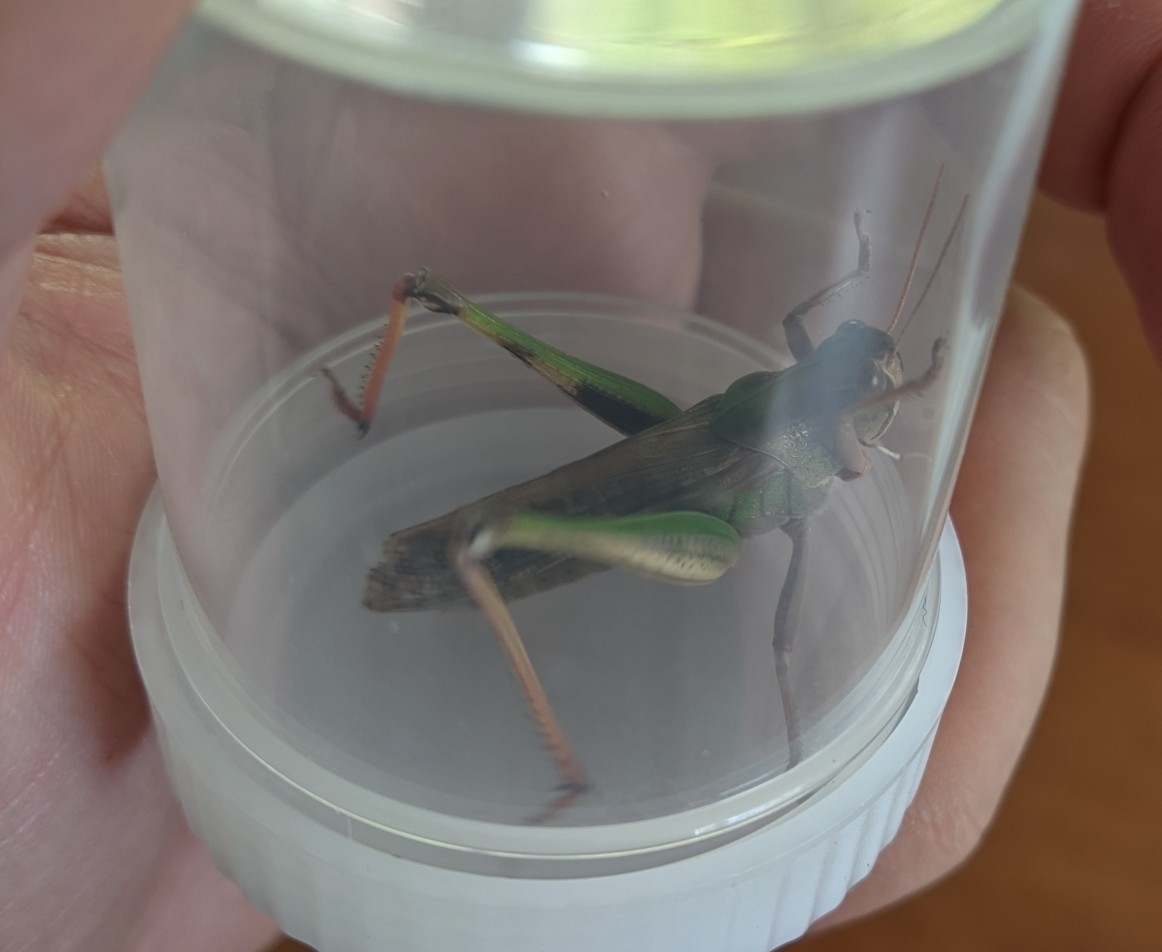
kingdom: Animalia
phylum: Arthropoda
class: Insecta
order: Orthoptera
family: Acrididae
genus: Locusta
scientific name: Locusta migratoria
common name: Migratory locust
